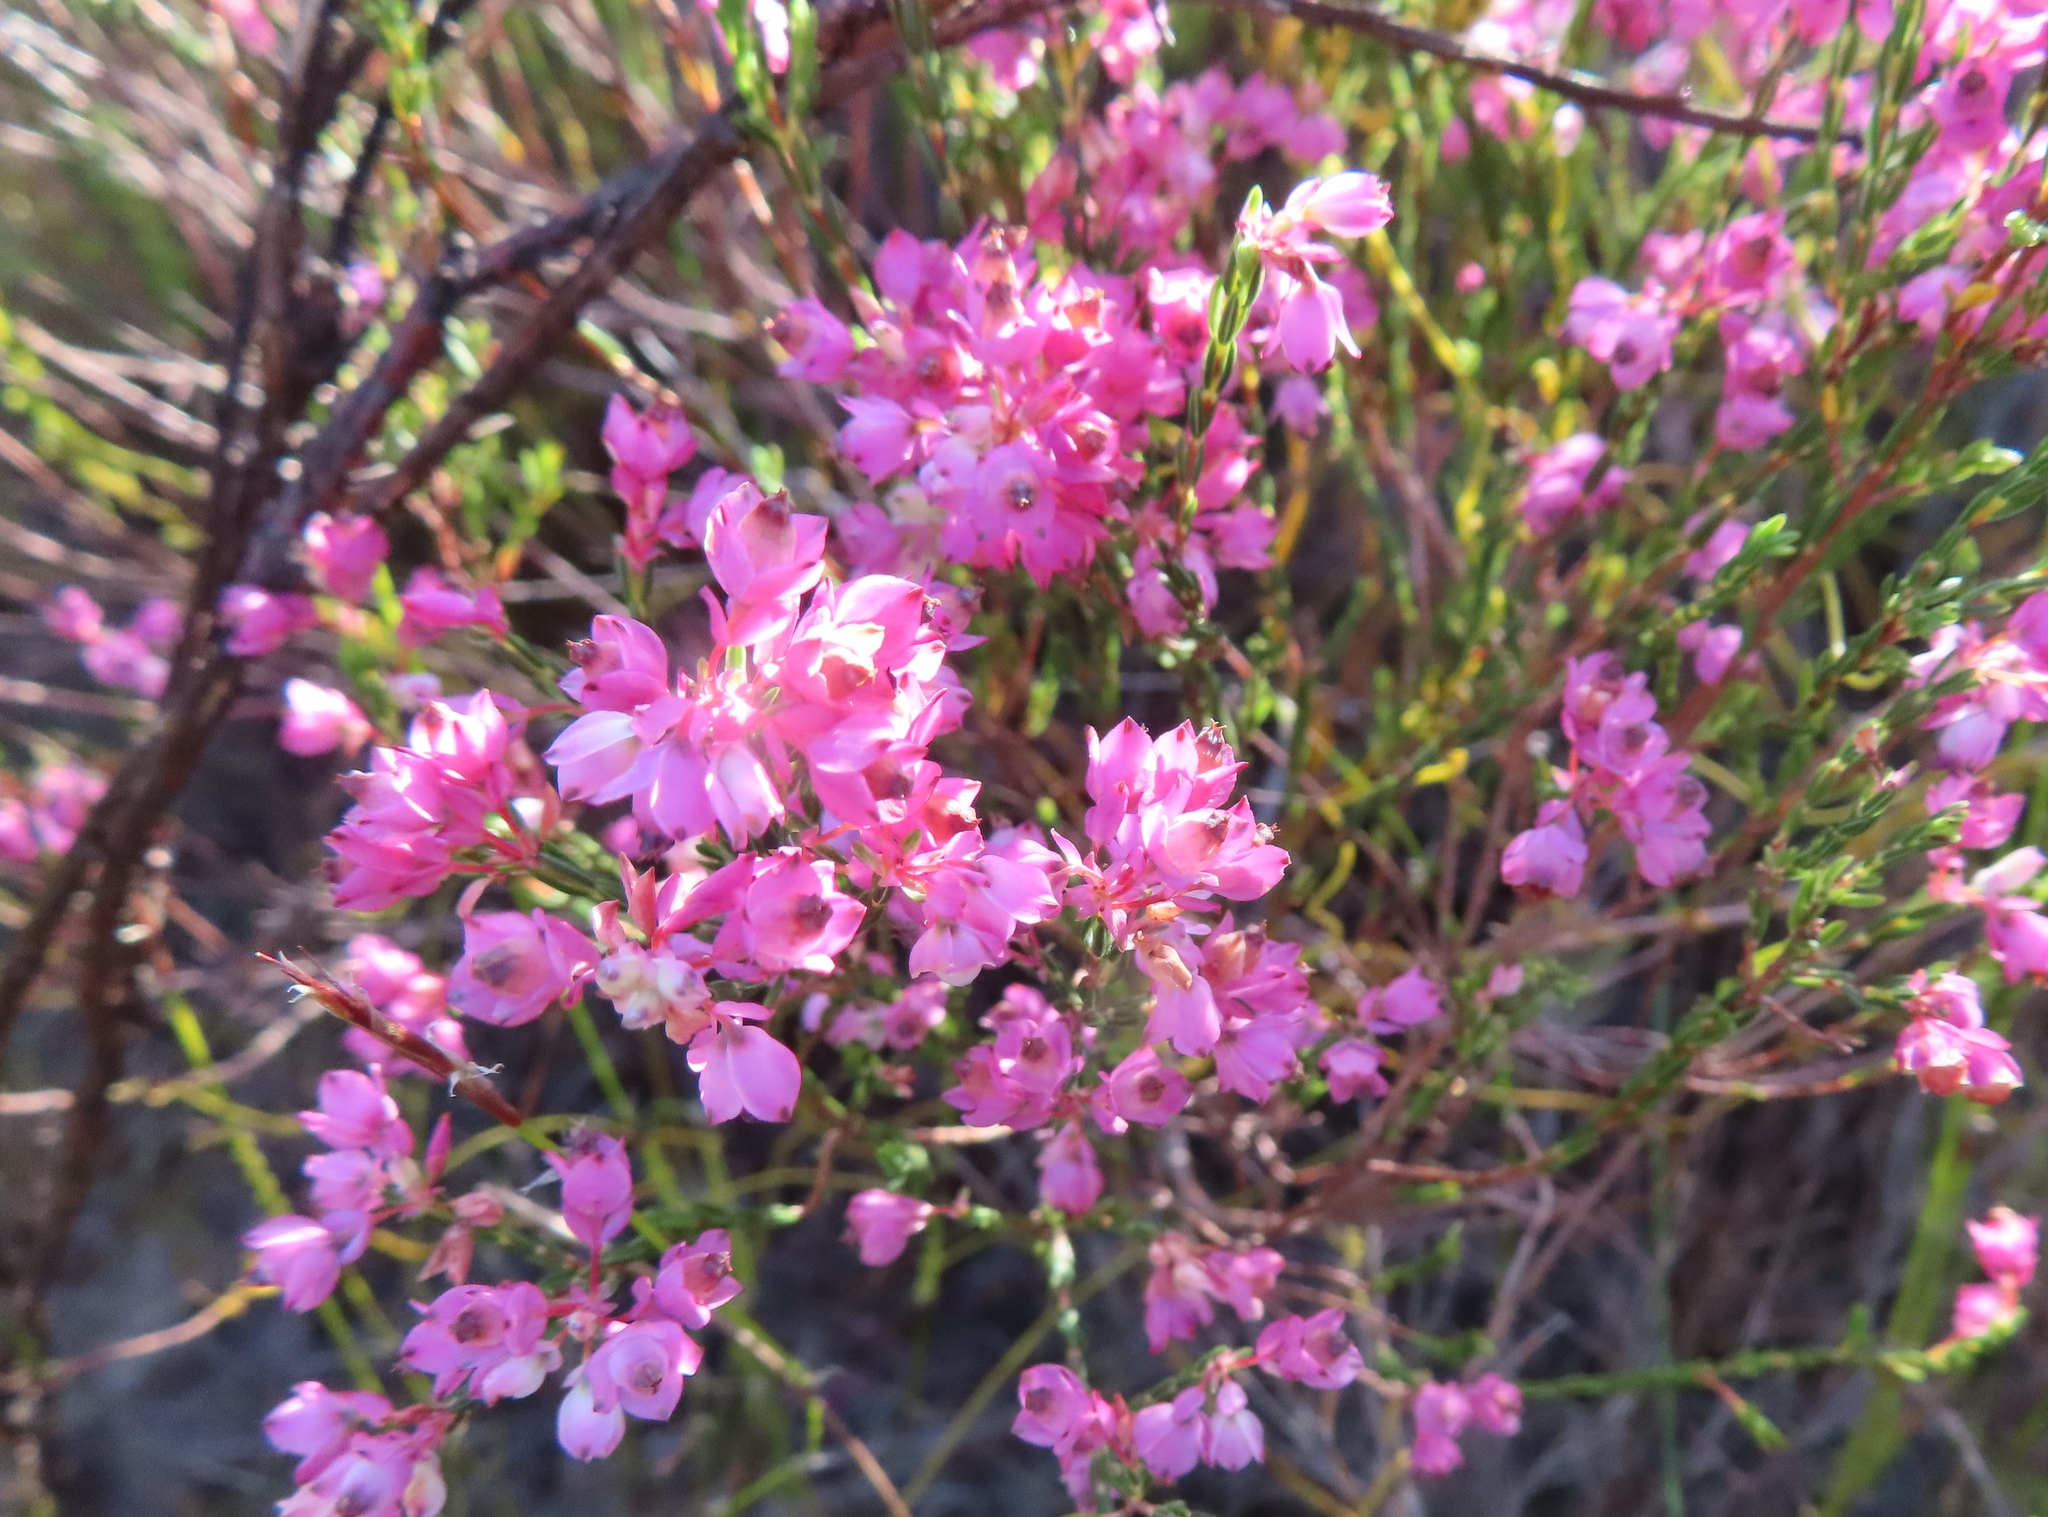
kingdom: Plantae
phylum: Tracheophyta
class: Magnoliopsida
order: Ericales
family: Ericaceae
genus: Erica
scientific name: Erica corifolia
